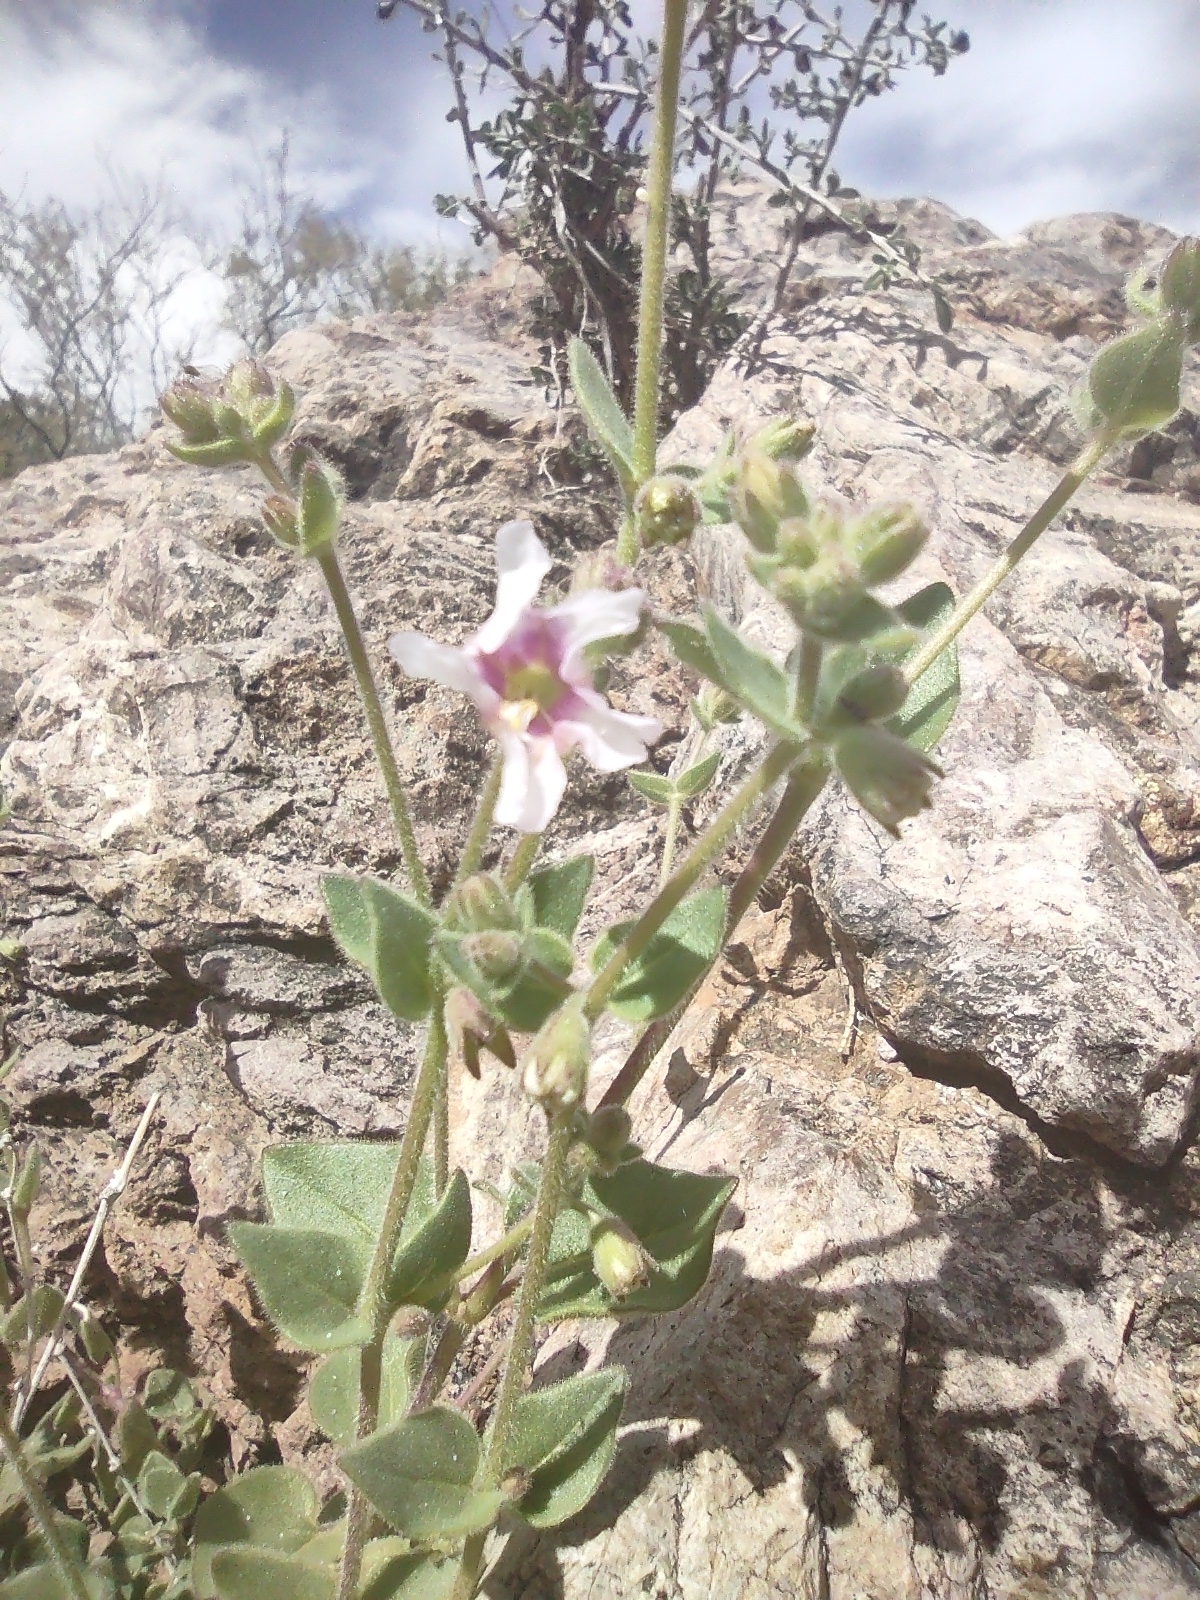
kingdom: Plantae
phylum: Tracheophyta
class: Magnoliopsida
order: Caryophyllales
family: Nyctaginaceae
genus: Mirabilis
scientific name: Mirabilis laevis
